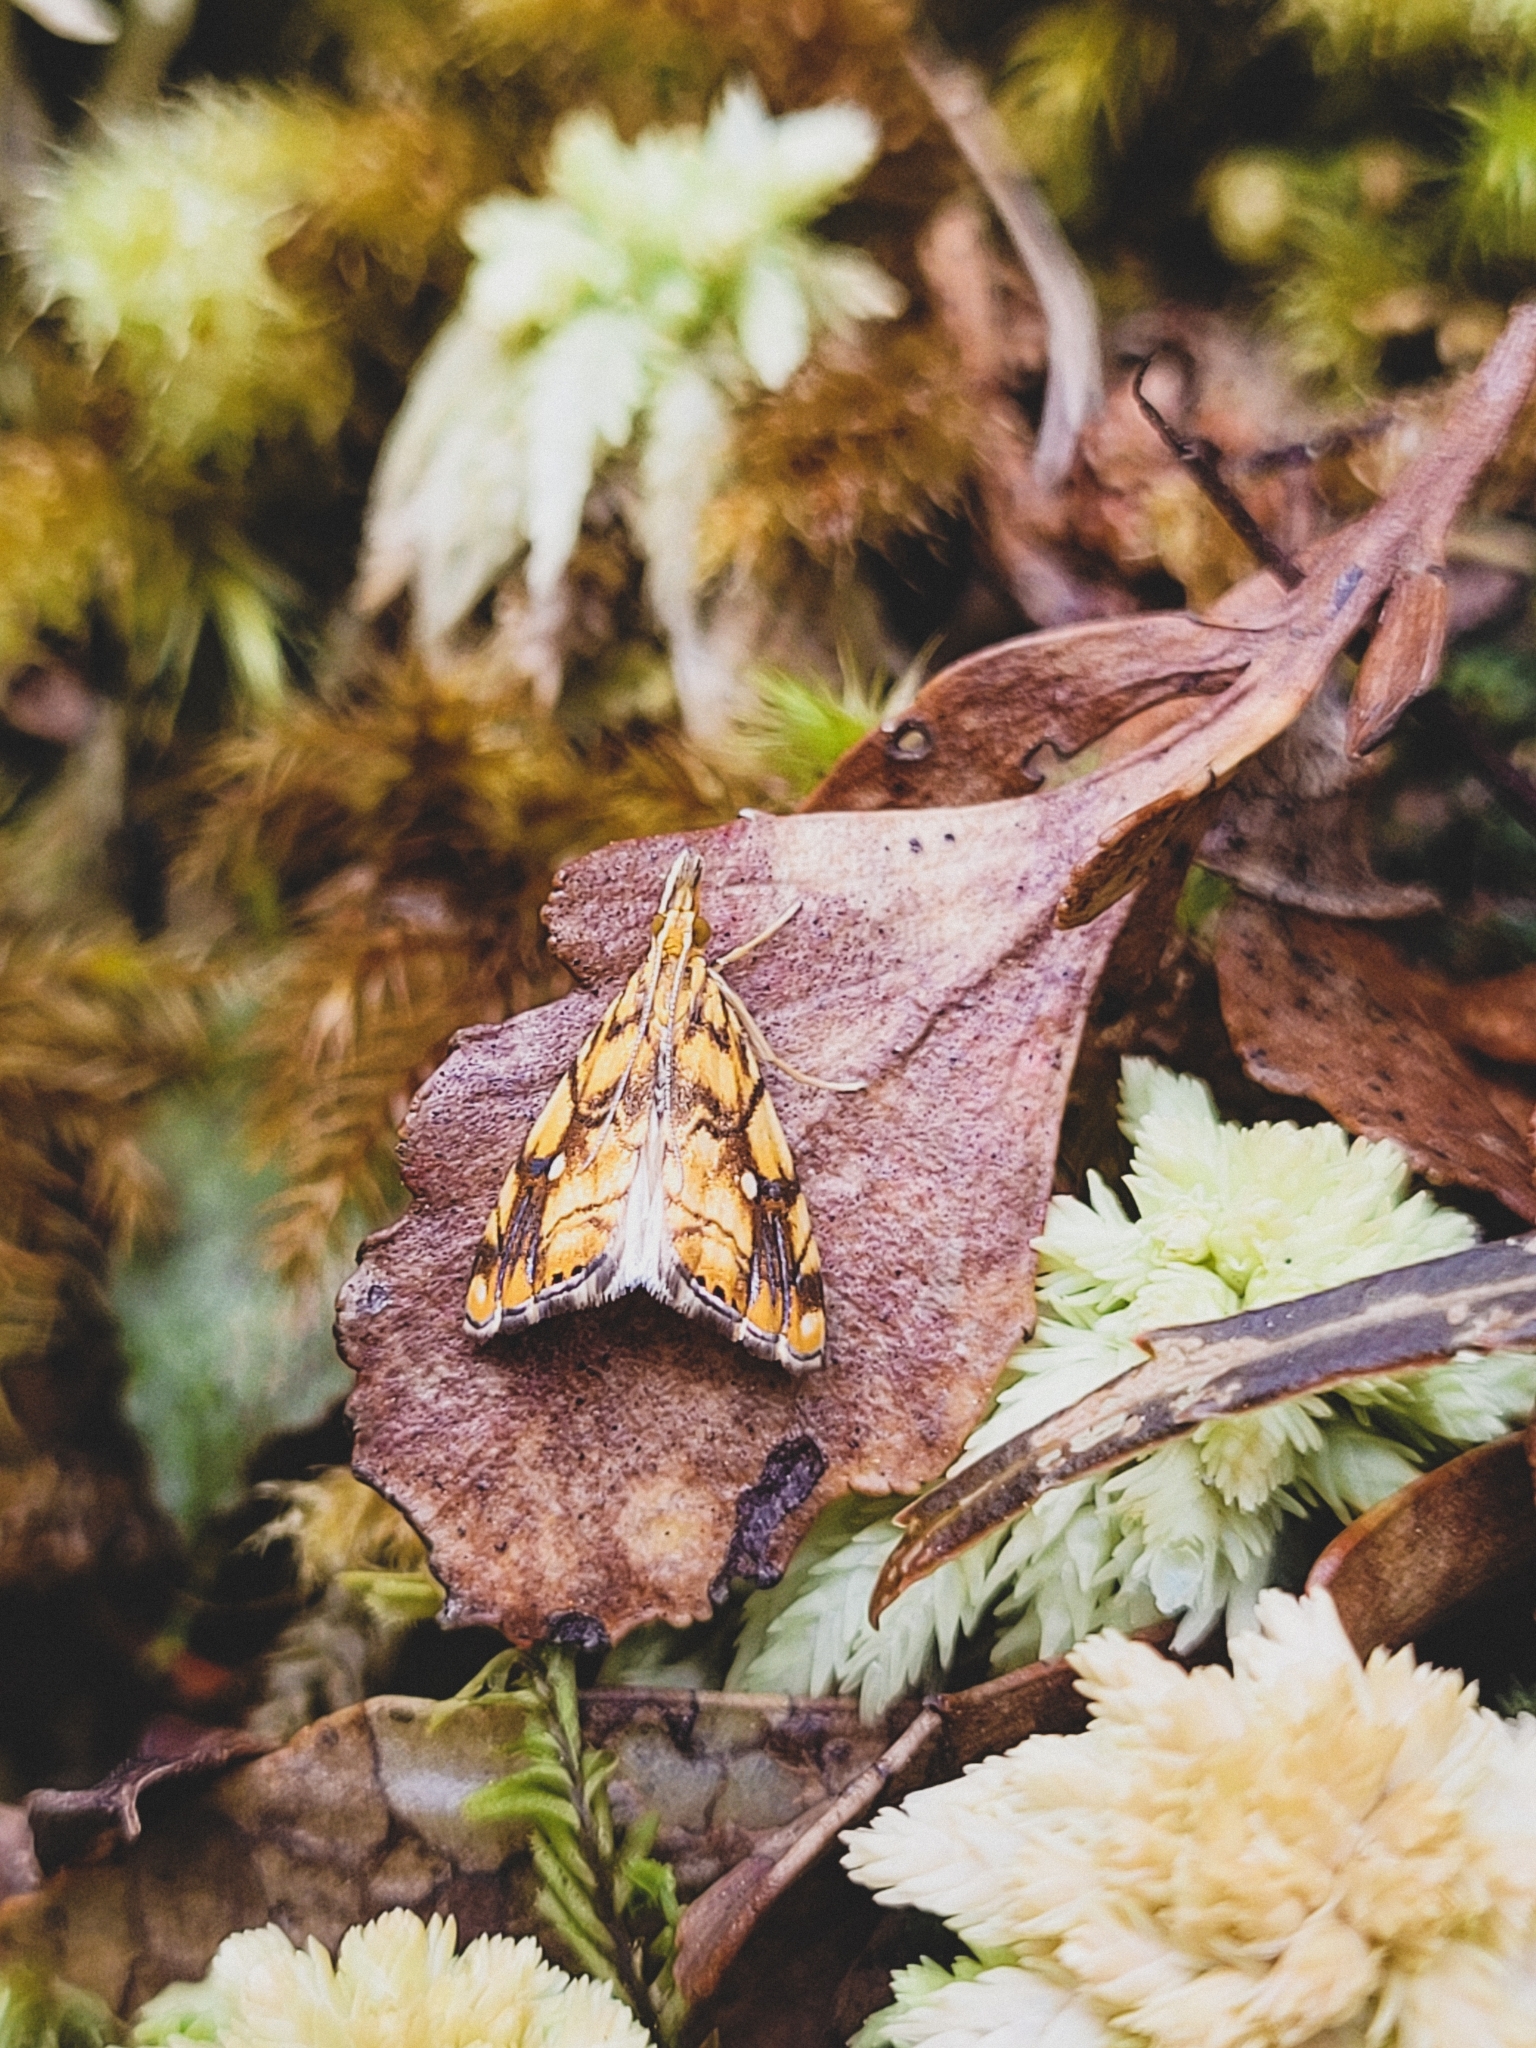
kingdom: Animalia
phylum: Arthropoda
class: Insecta
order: Lepidoptera
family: Crambidae
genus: Glaucocharis
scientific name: Glaucocharis selenaea
